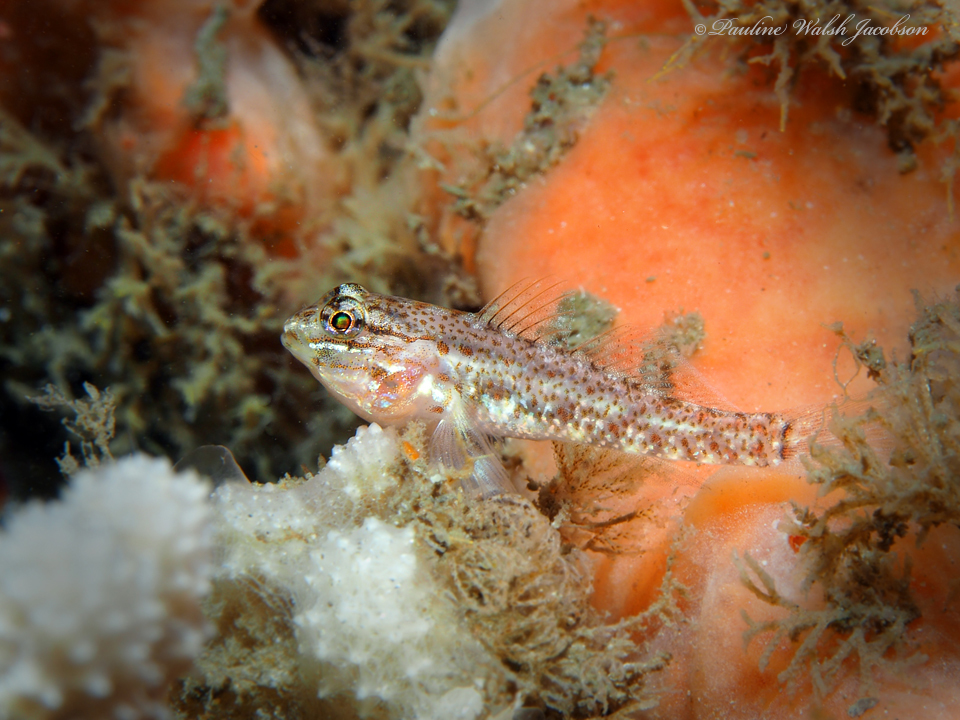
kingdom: Animalia
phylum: Chordata
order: Perciformes
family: Gobiidae
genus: Coryphopterus
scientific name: Coryphopterus dicrus
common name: Colon goby
